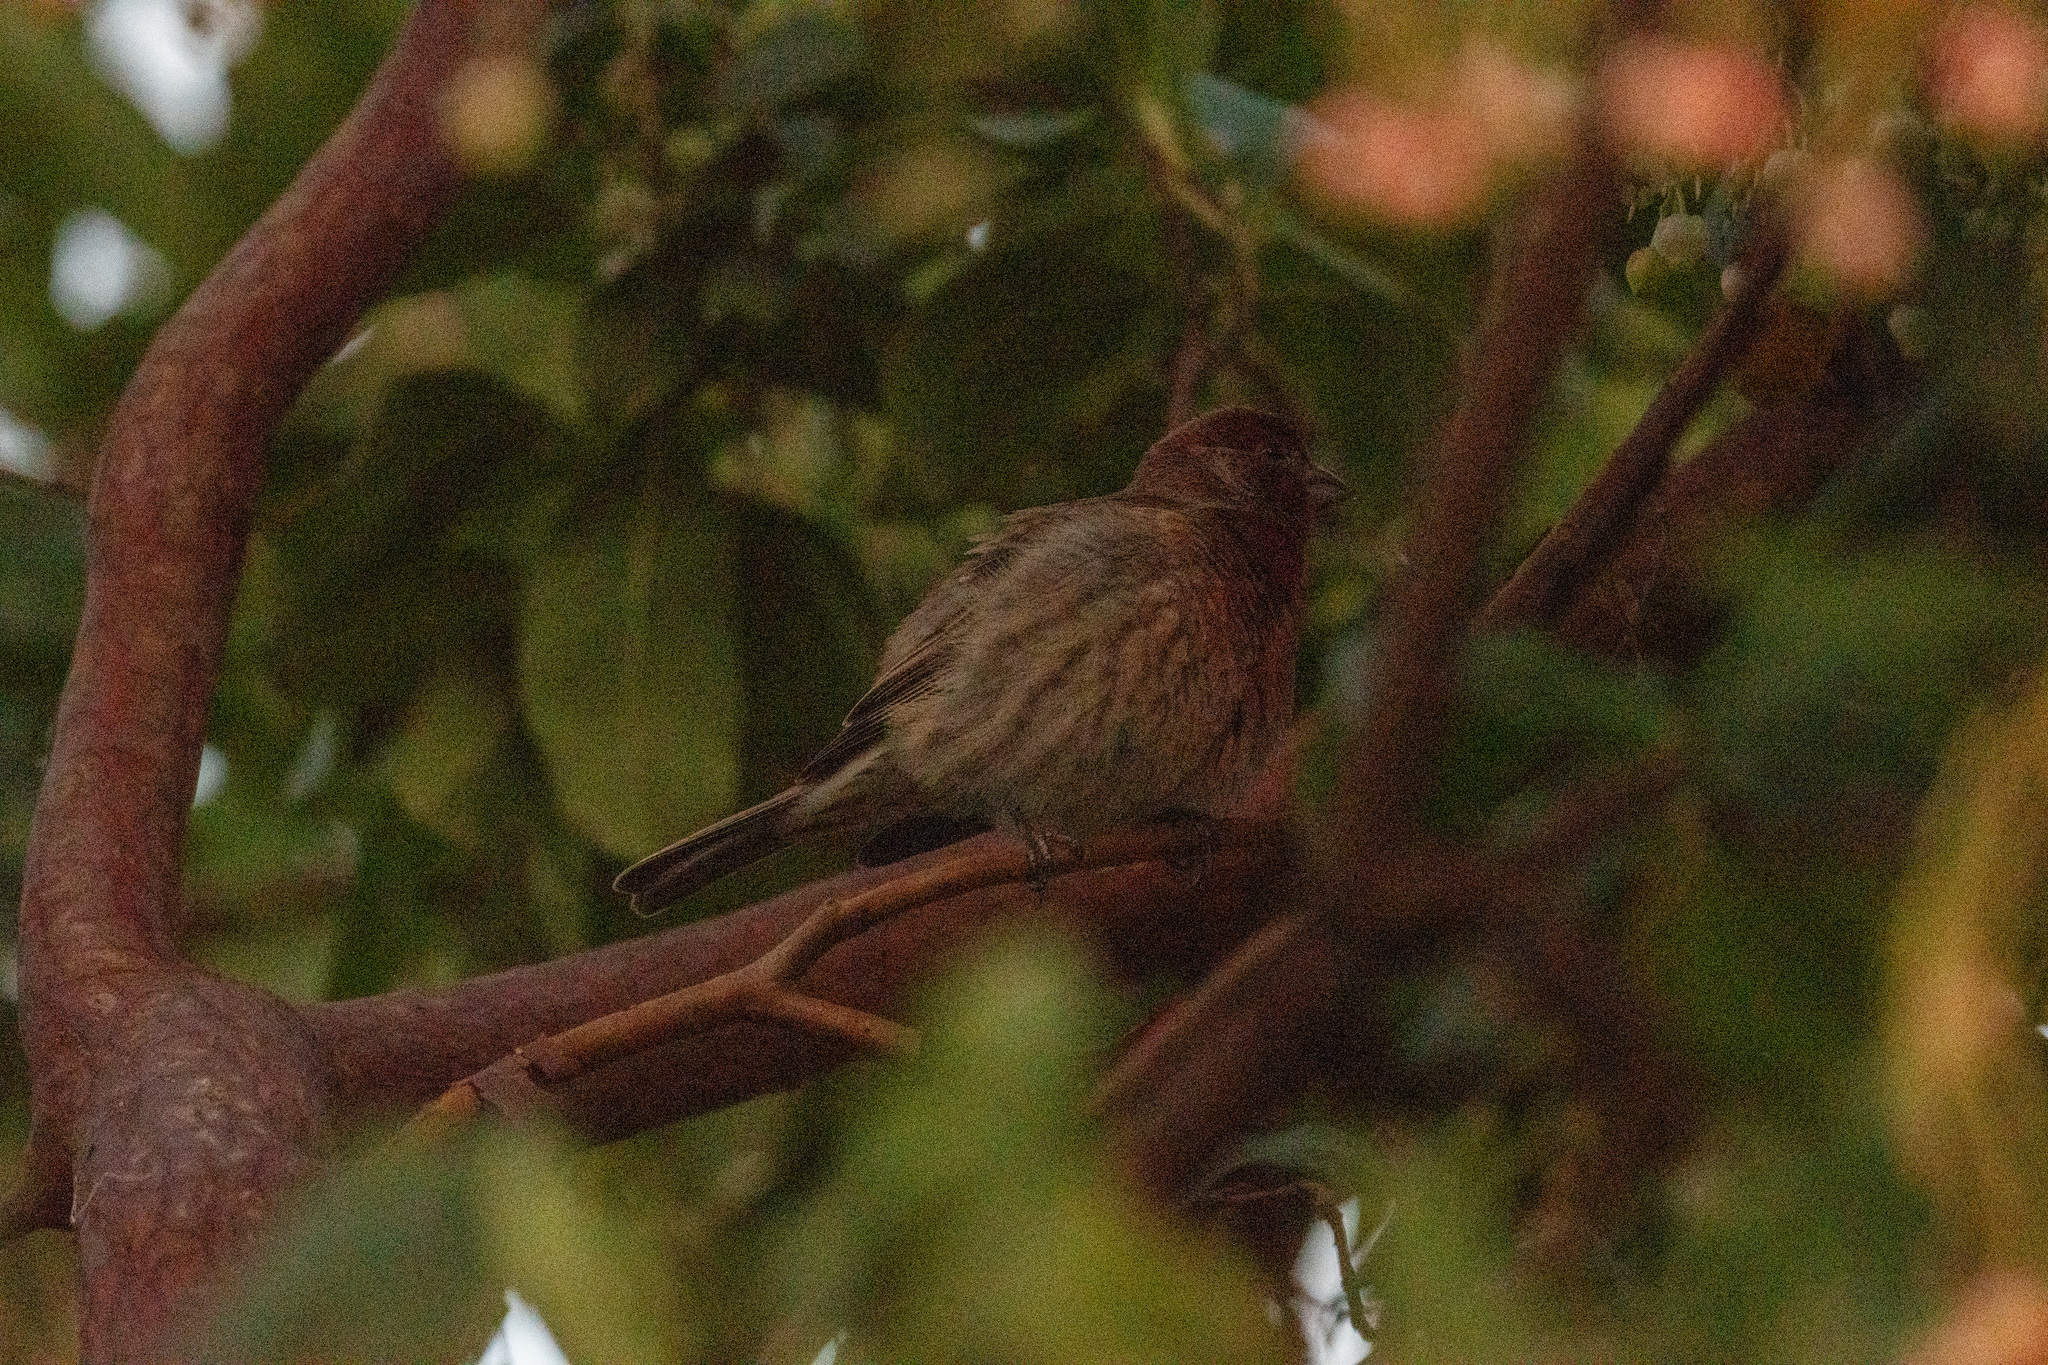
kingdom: Animalia
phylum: Chordata
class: Aves
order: Passeriformes
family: Fringillidae
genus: Haemorhous
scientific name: Haemorhous mexicanus
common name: House finch
